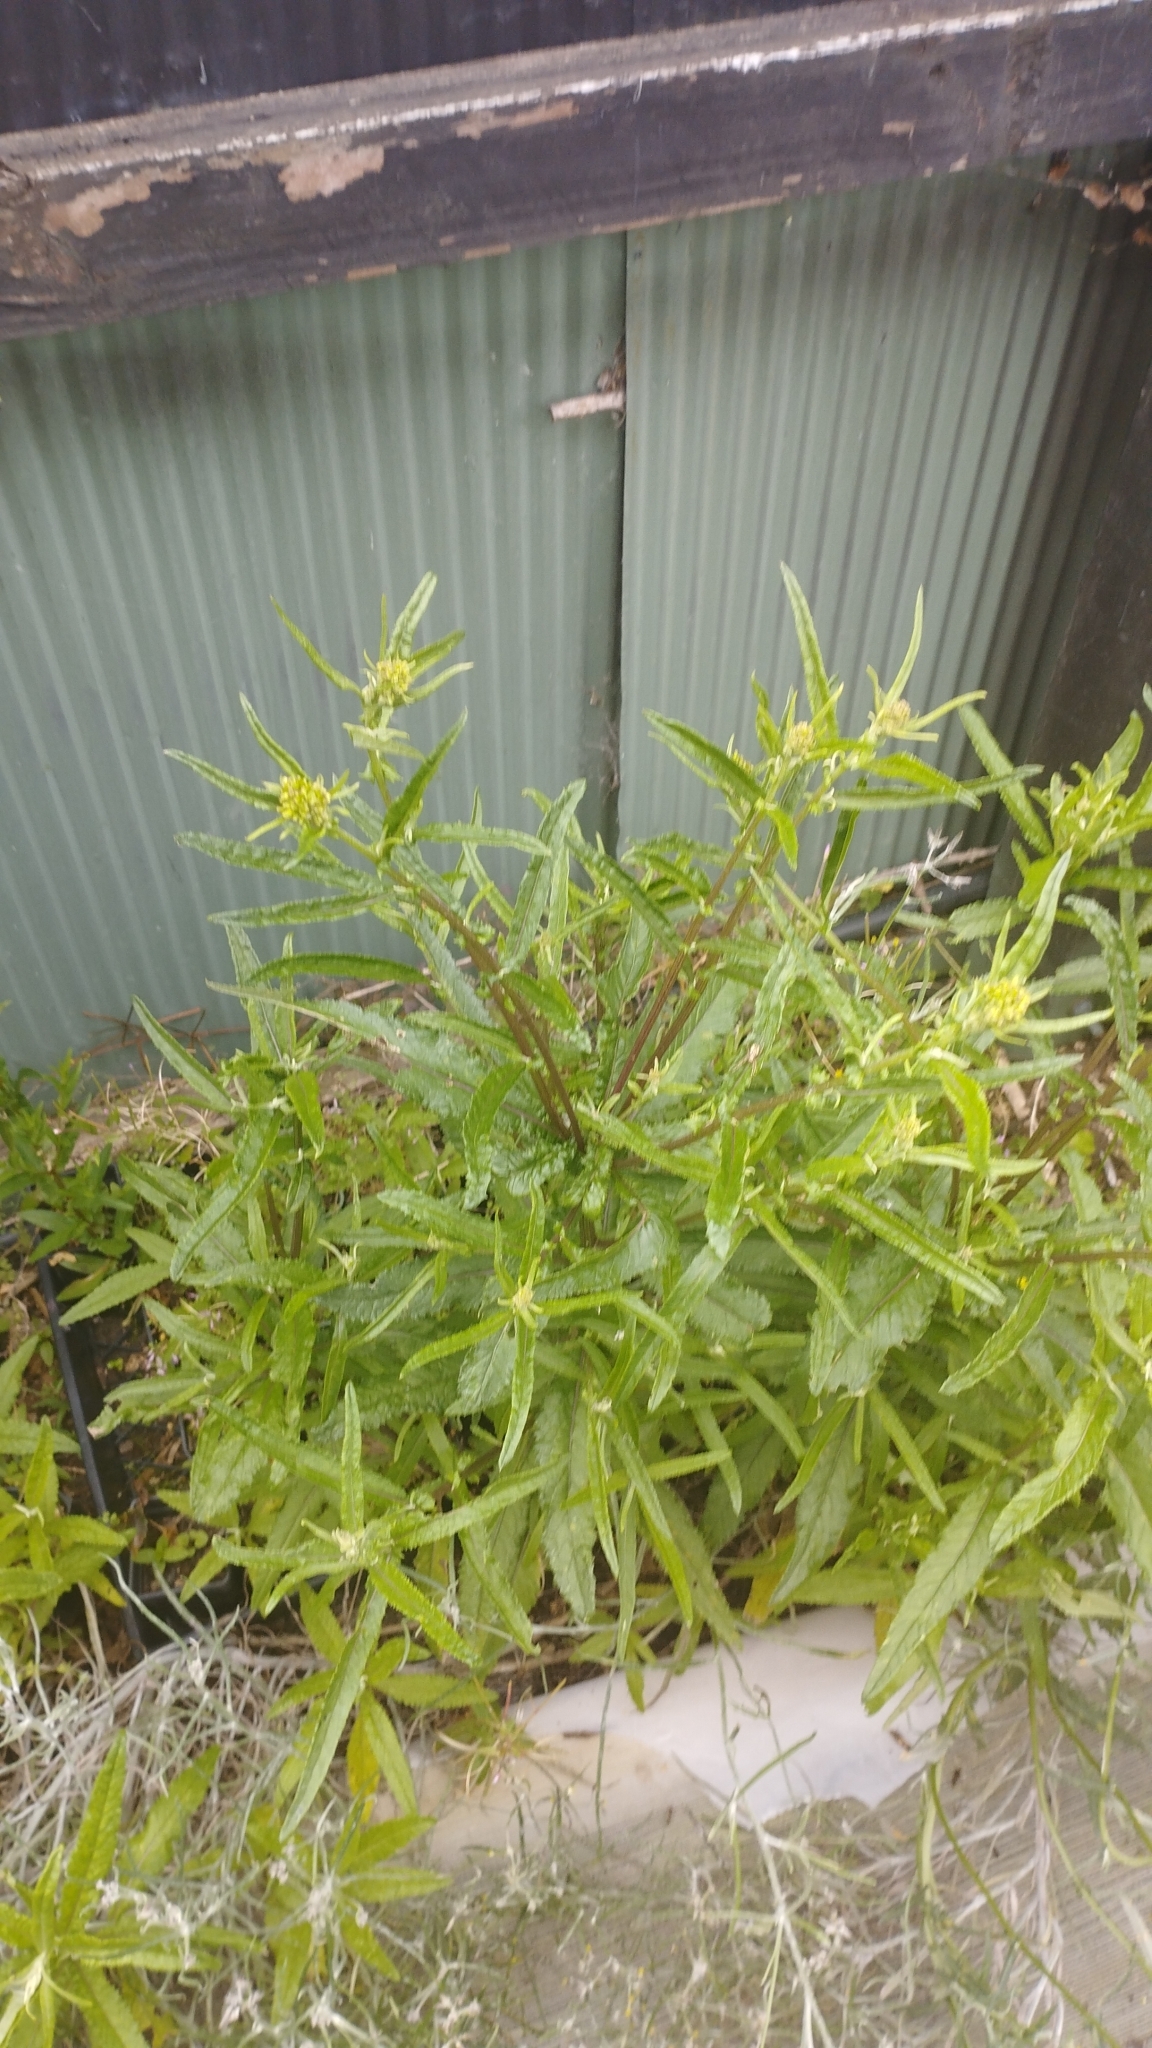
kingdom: Plantae
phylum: Tracheophyta
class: Magnoliopsida
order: Asterales
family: Asteraceae
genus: Senecio
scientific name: Senecio minimus
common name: Toothed fireweed
